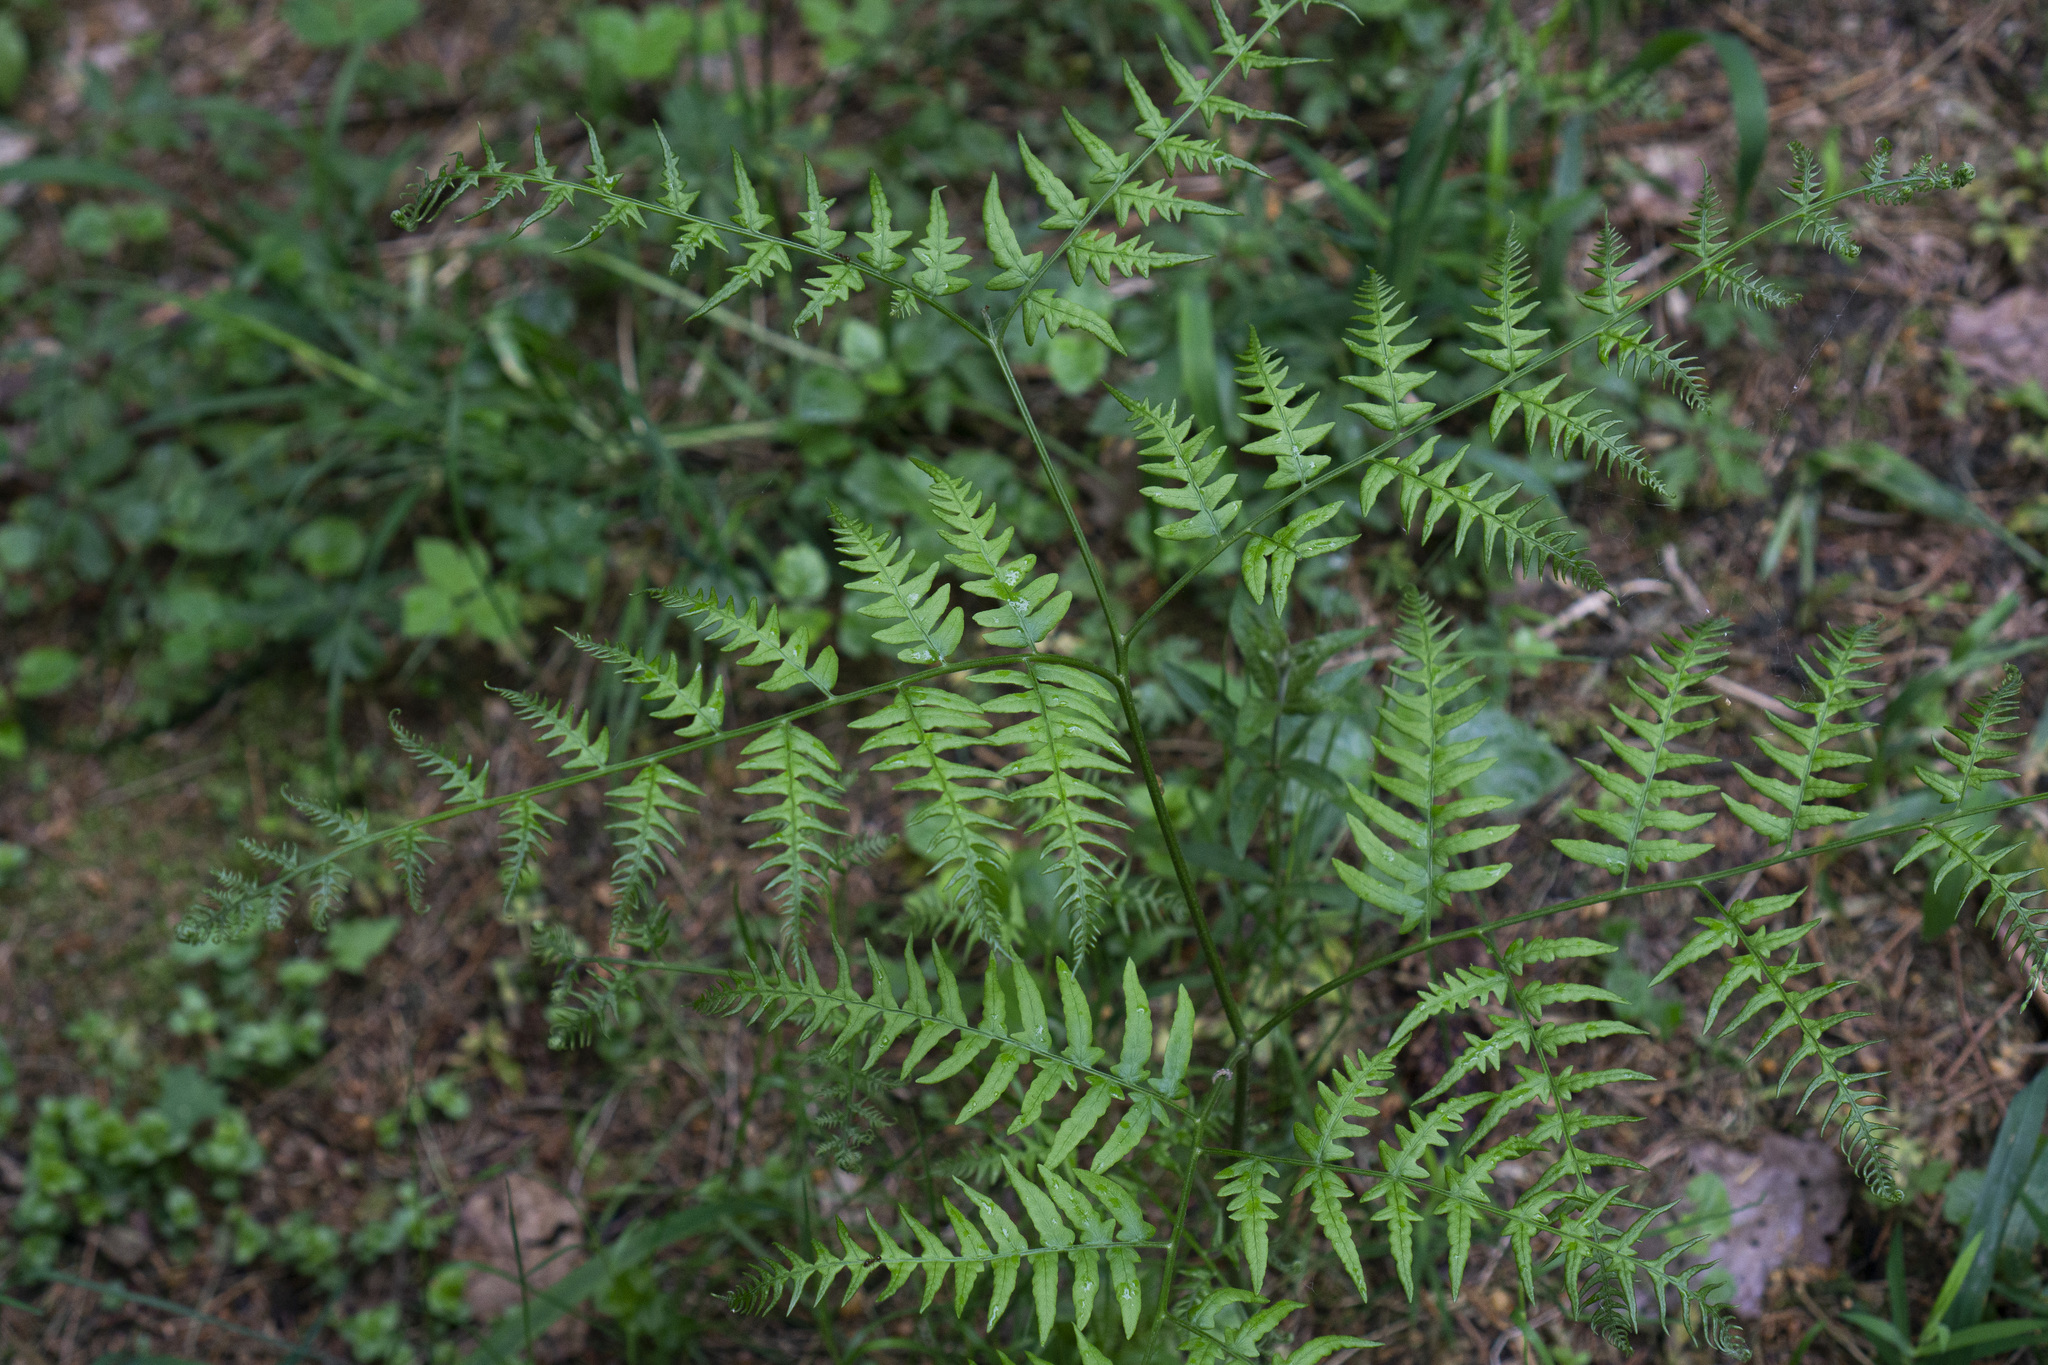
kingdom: Plantae
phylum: Tracheophyta
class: Polypodiopsida
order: Polypodiales
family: Dennstaedtiaceae
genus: Pteridium
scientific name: Pteridium aquilinum
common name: Bracken
